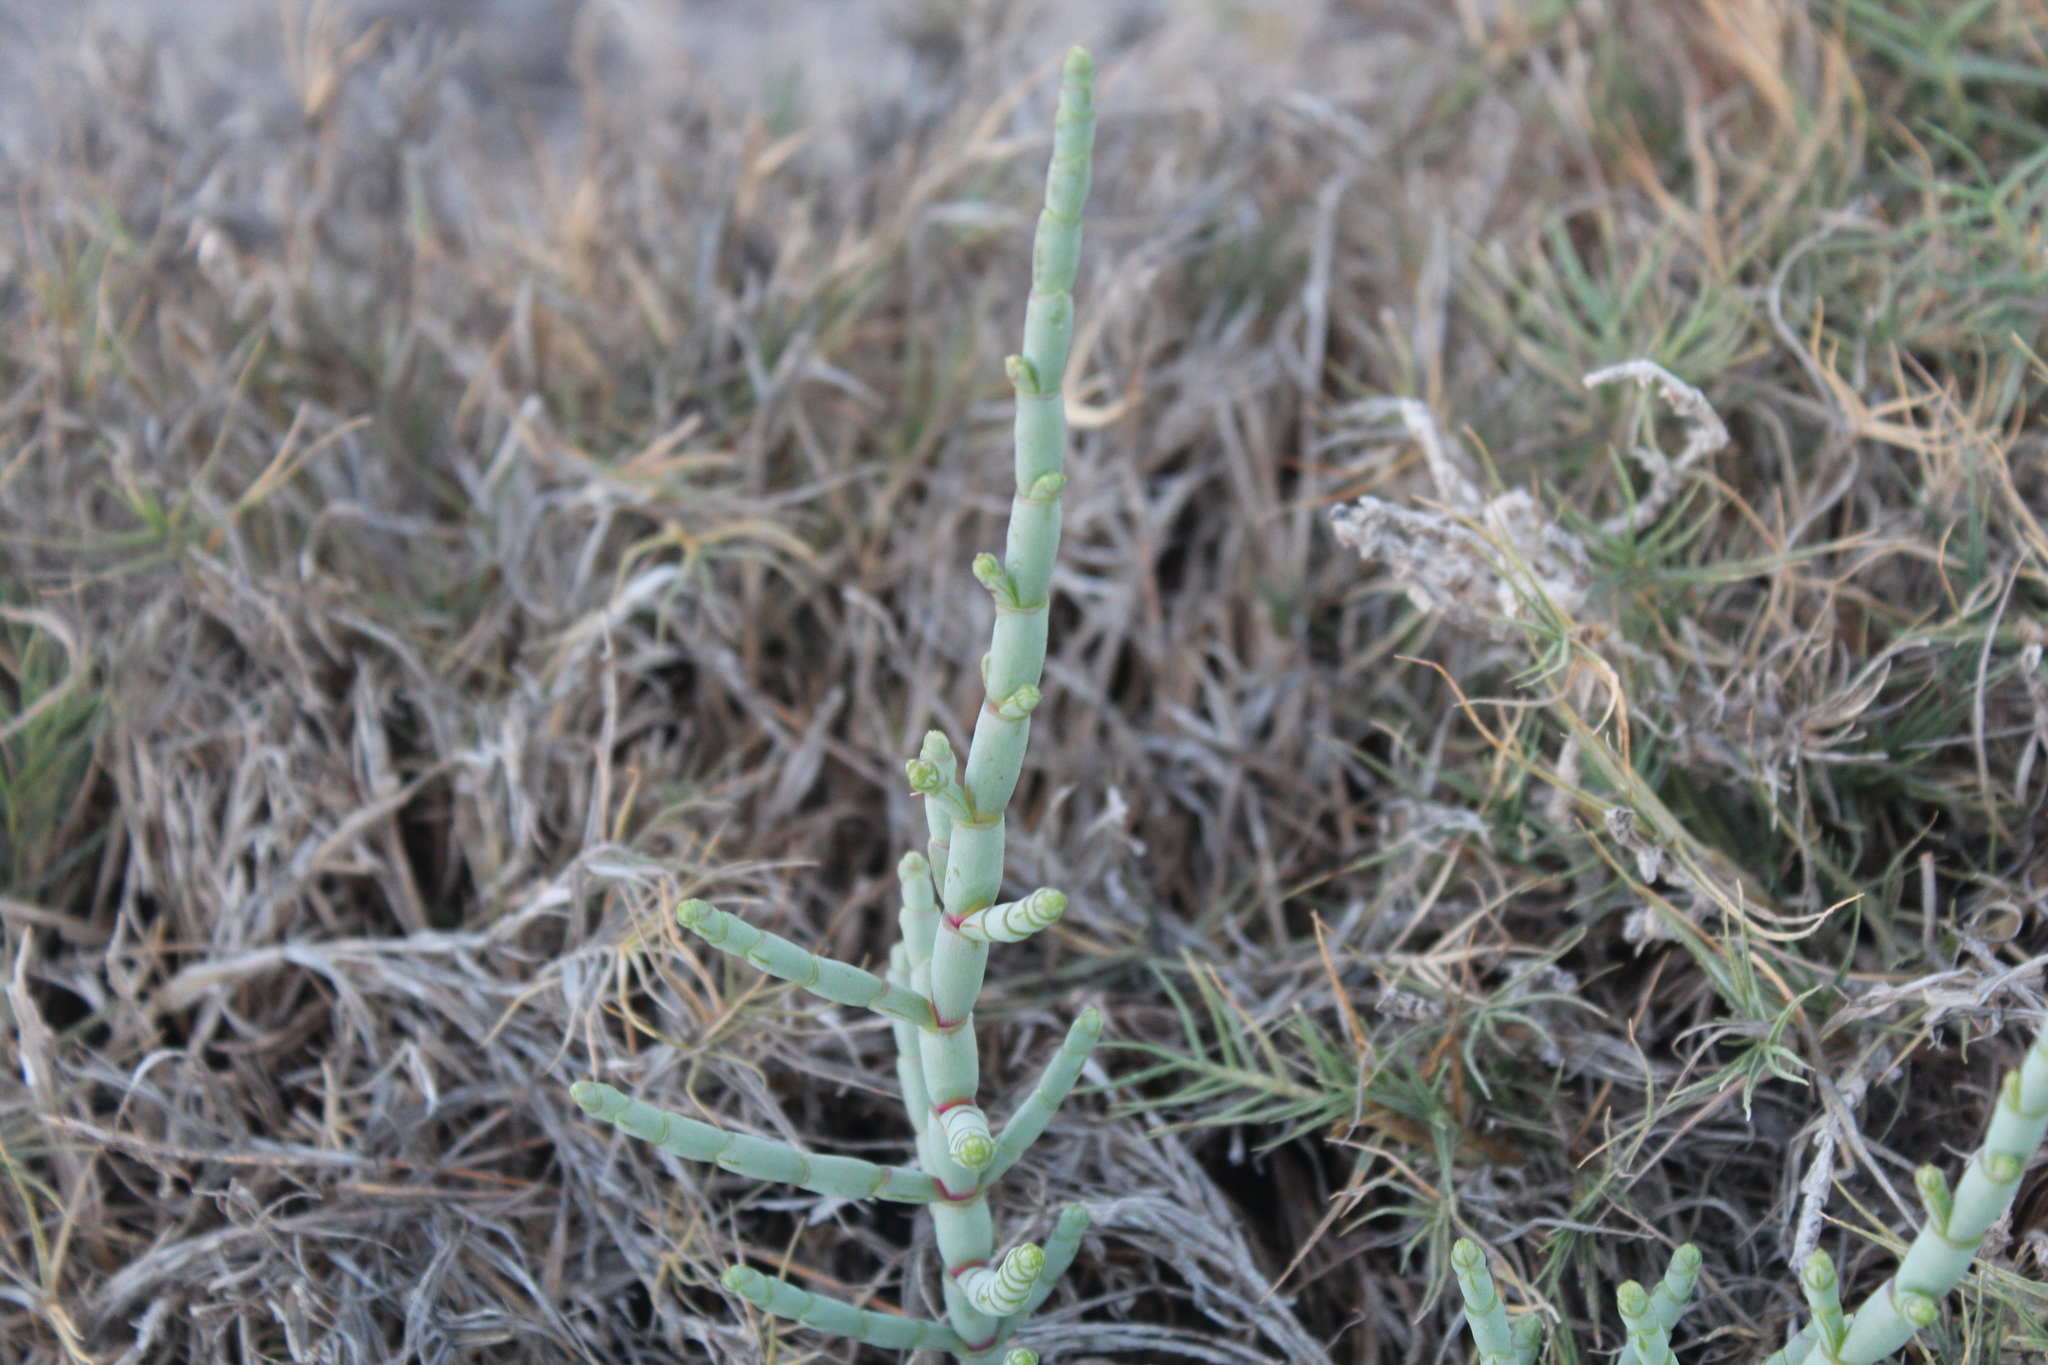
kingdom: Plantae
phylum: Tracheophyta
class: Magnoliopsida
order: Caryophyllales
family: Amaranthaceae
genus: Salicornia
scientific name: Salicornia perrieri
